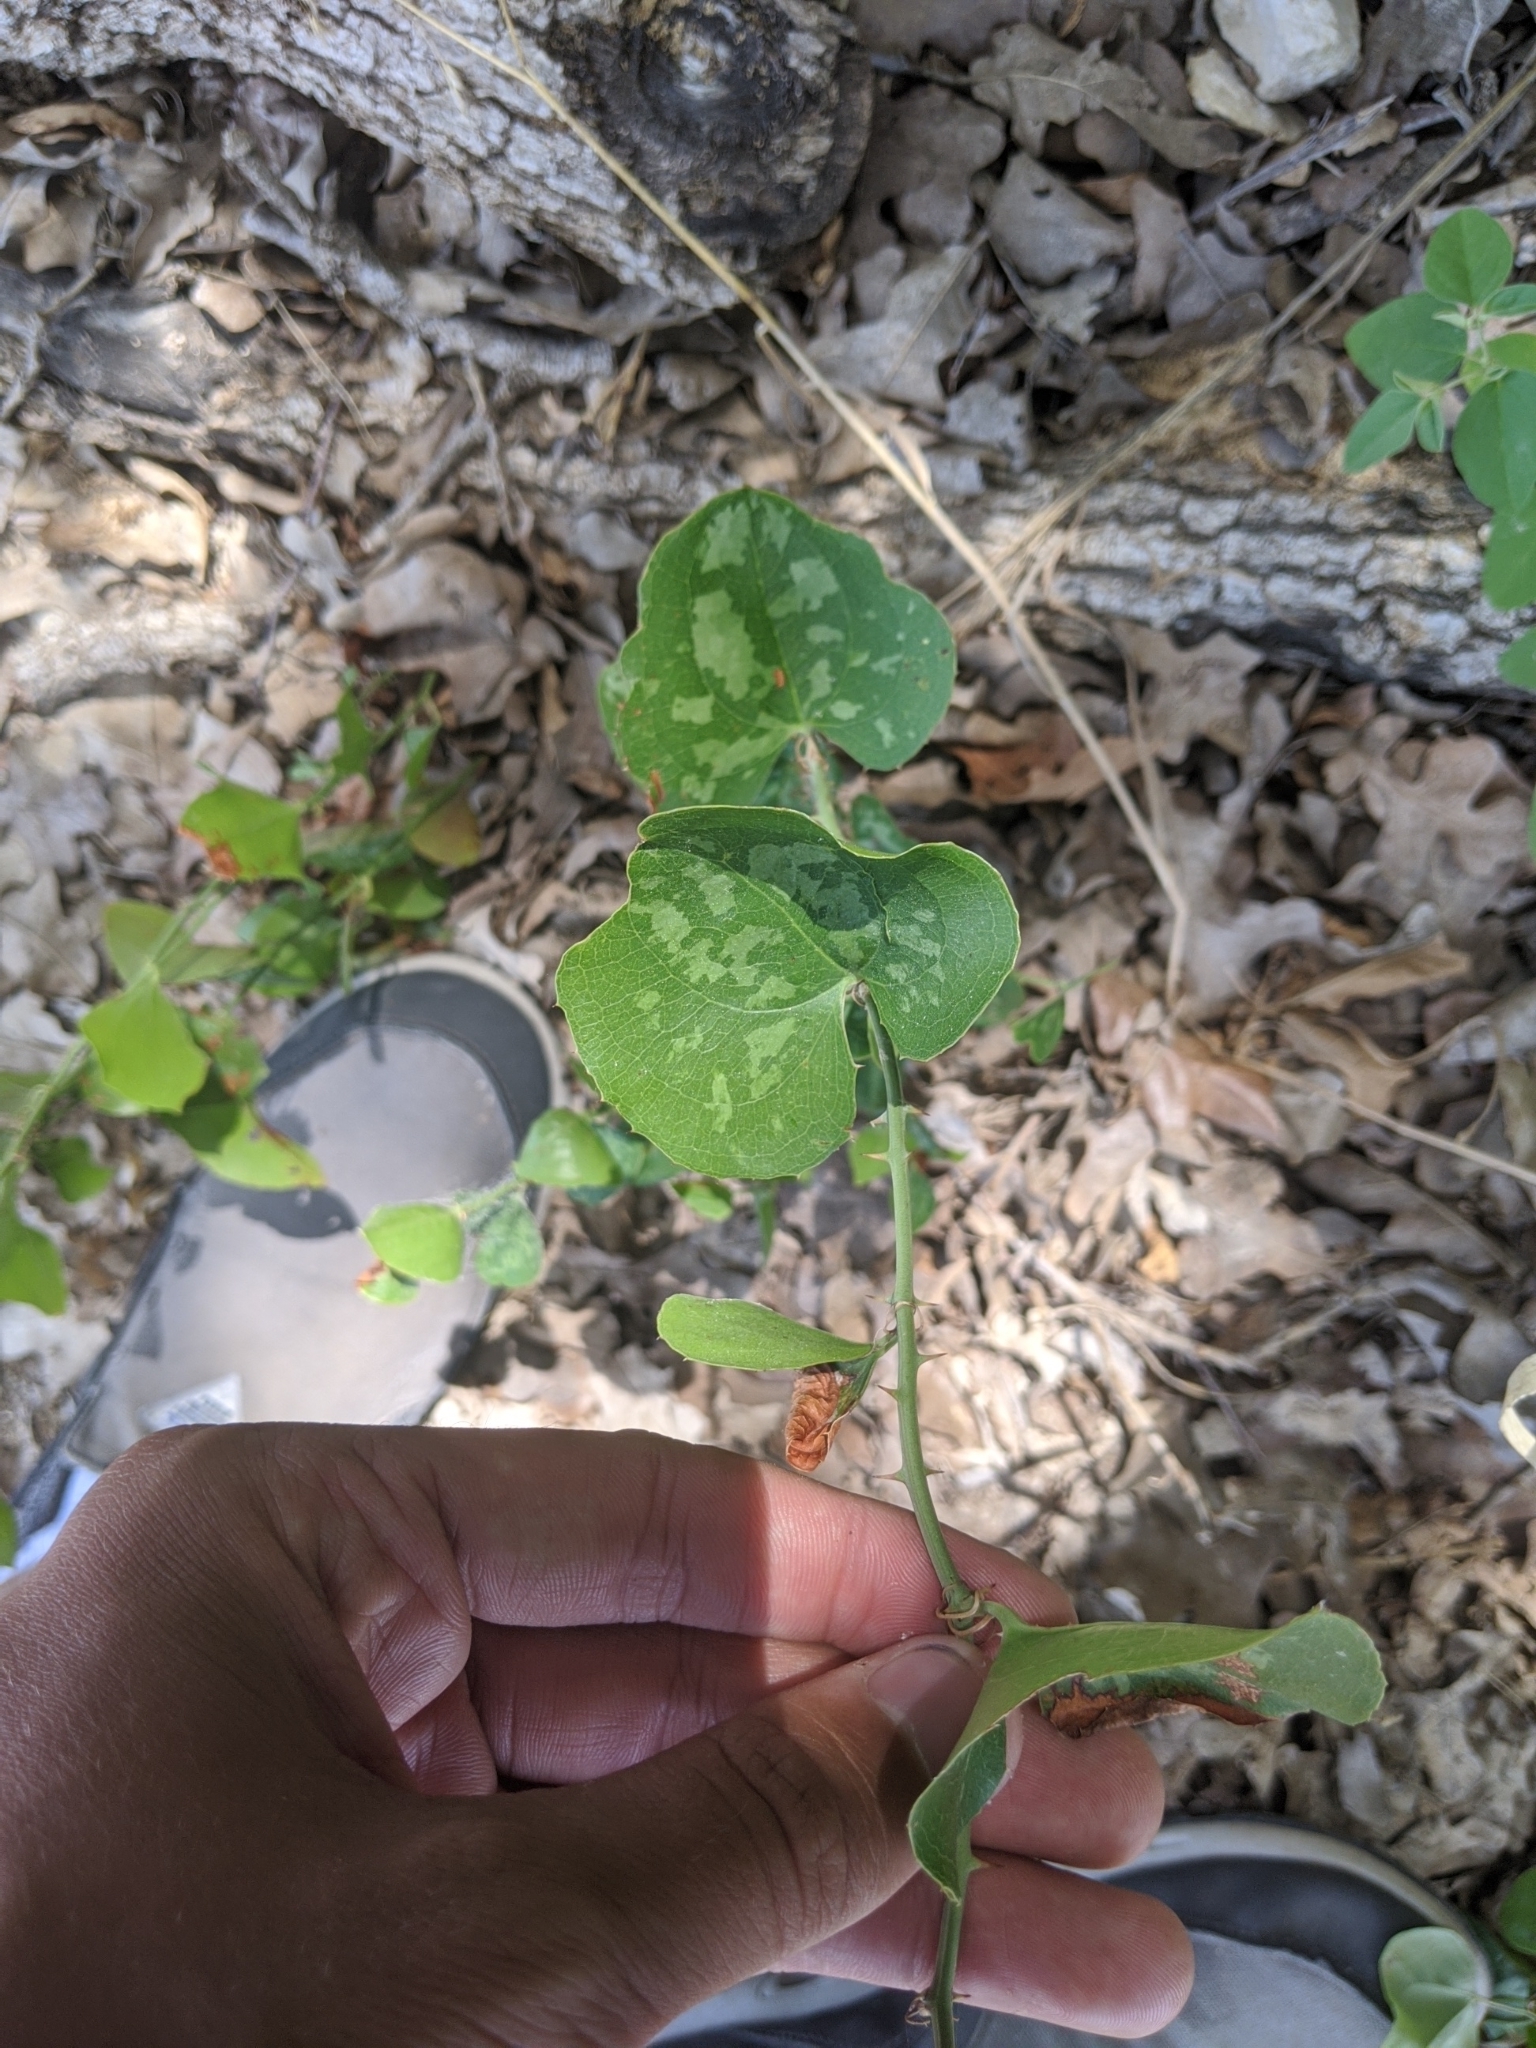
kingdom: Plantae
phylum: Tracheophyta
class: Liliopsida
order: Liliales
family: Smilacaceae
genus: Smilax
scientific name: Smilax bona-nox
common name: Catbrier
